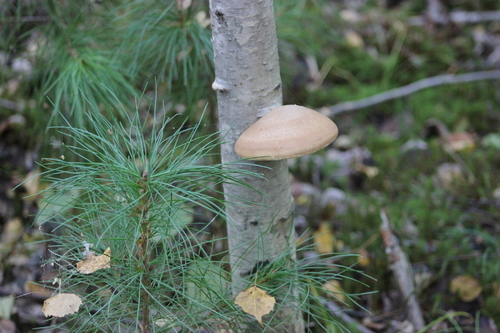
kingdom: Fungi
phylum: Basidiomycota
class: Agaricomycetes
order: Polyporales
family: Fomitopsidaceae
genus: Fomitopsis
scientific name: Fomitopsis betulina
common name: Birch polypore
